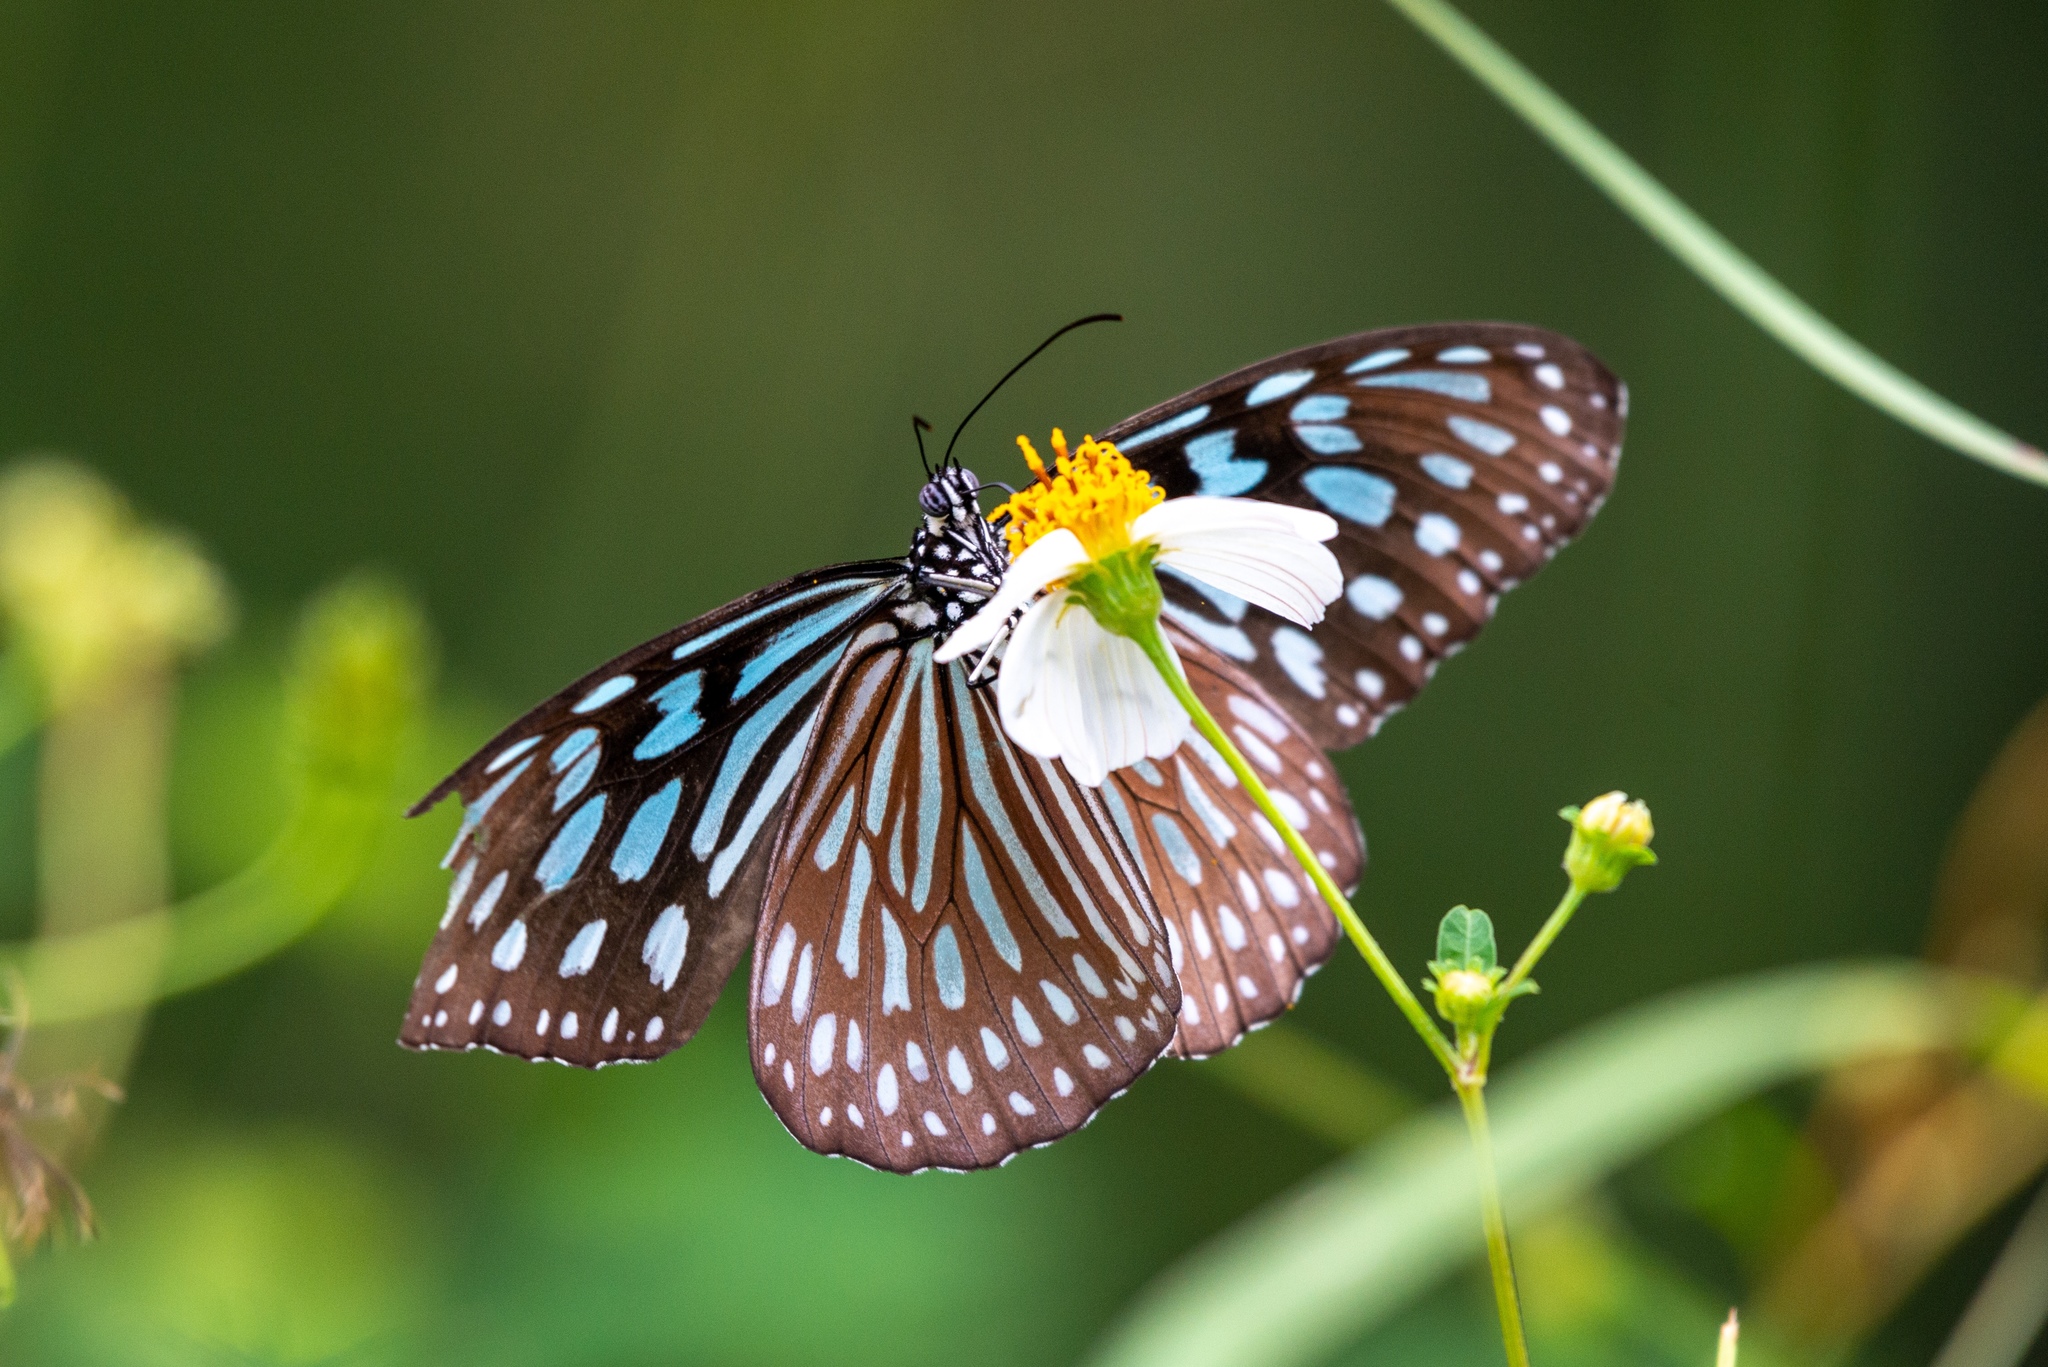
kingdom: Animalia
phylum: Arthropoda
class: Insecta
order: Lepidoptera
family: Nymphalidae
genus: Ideopsis
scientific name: Ideopsis similis
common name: Ceylon blue glassy tiger
